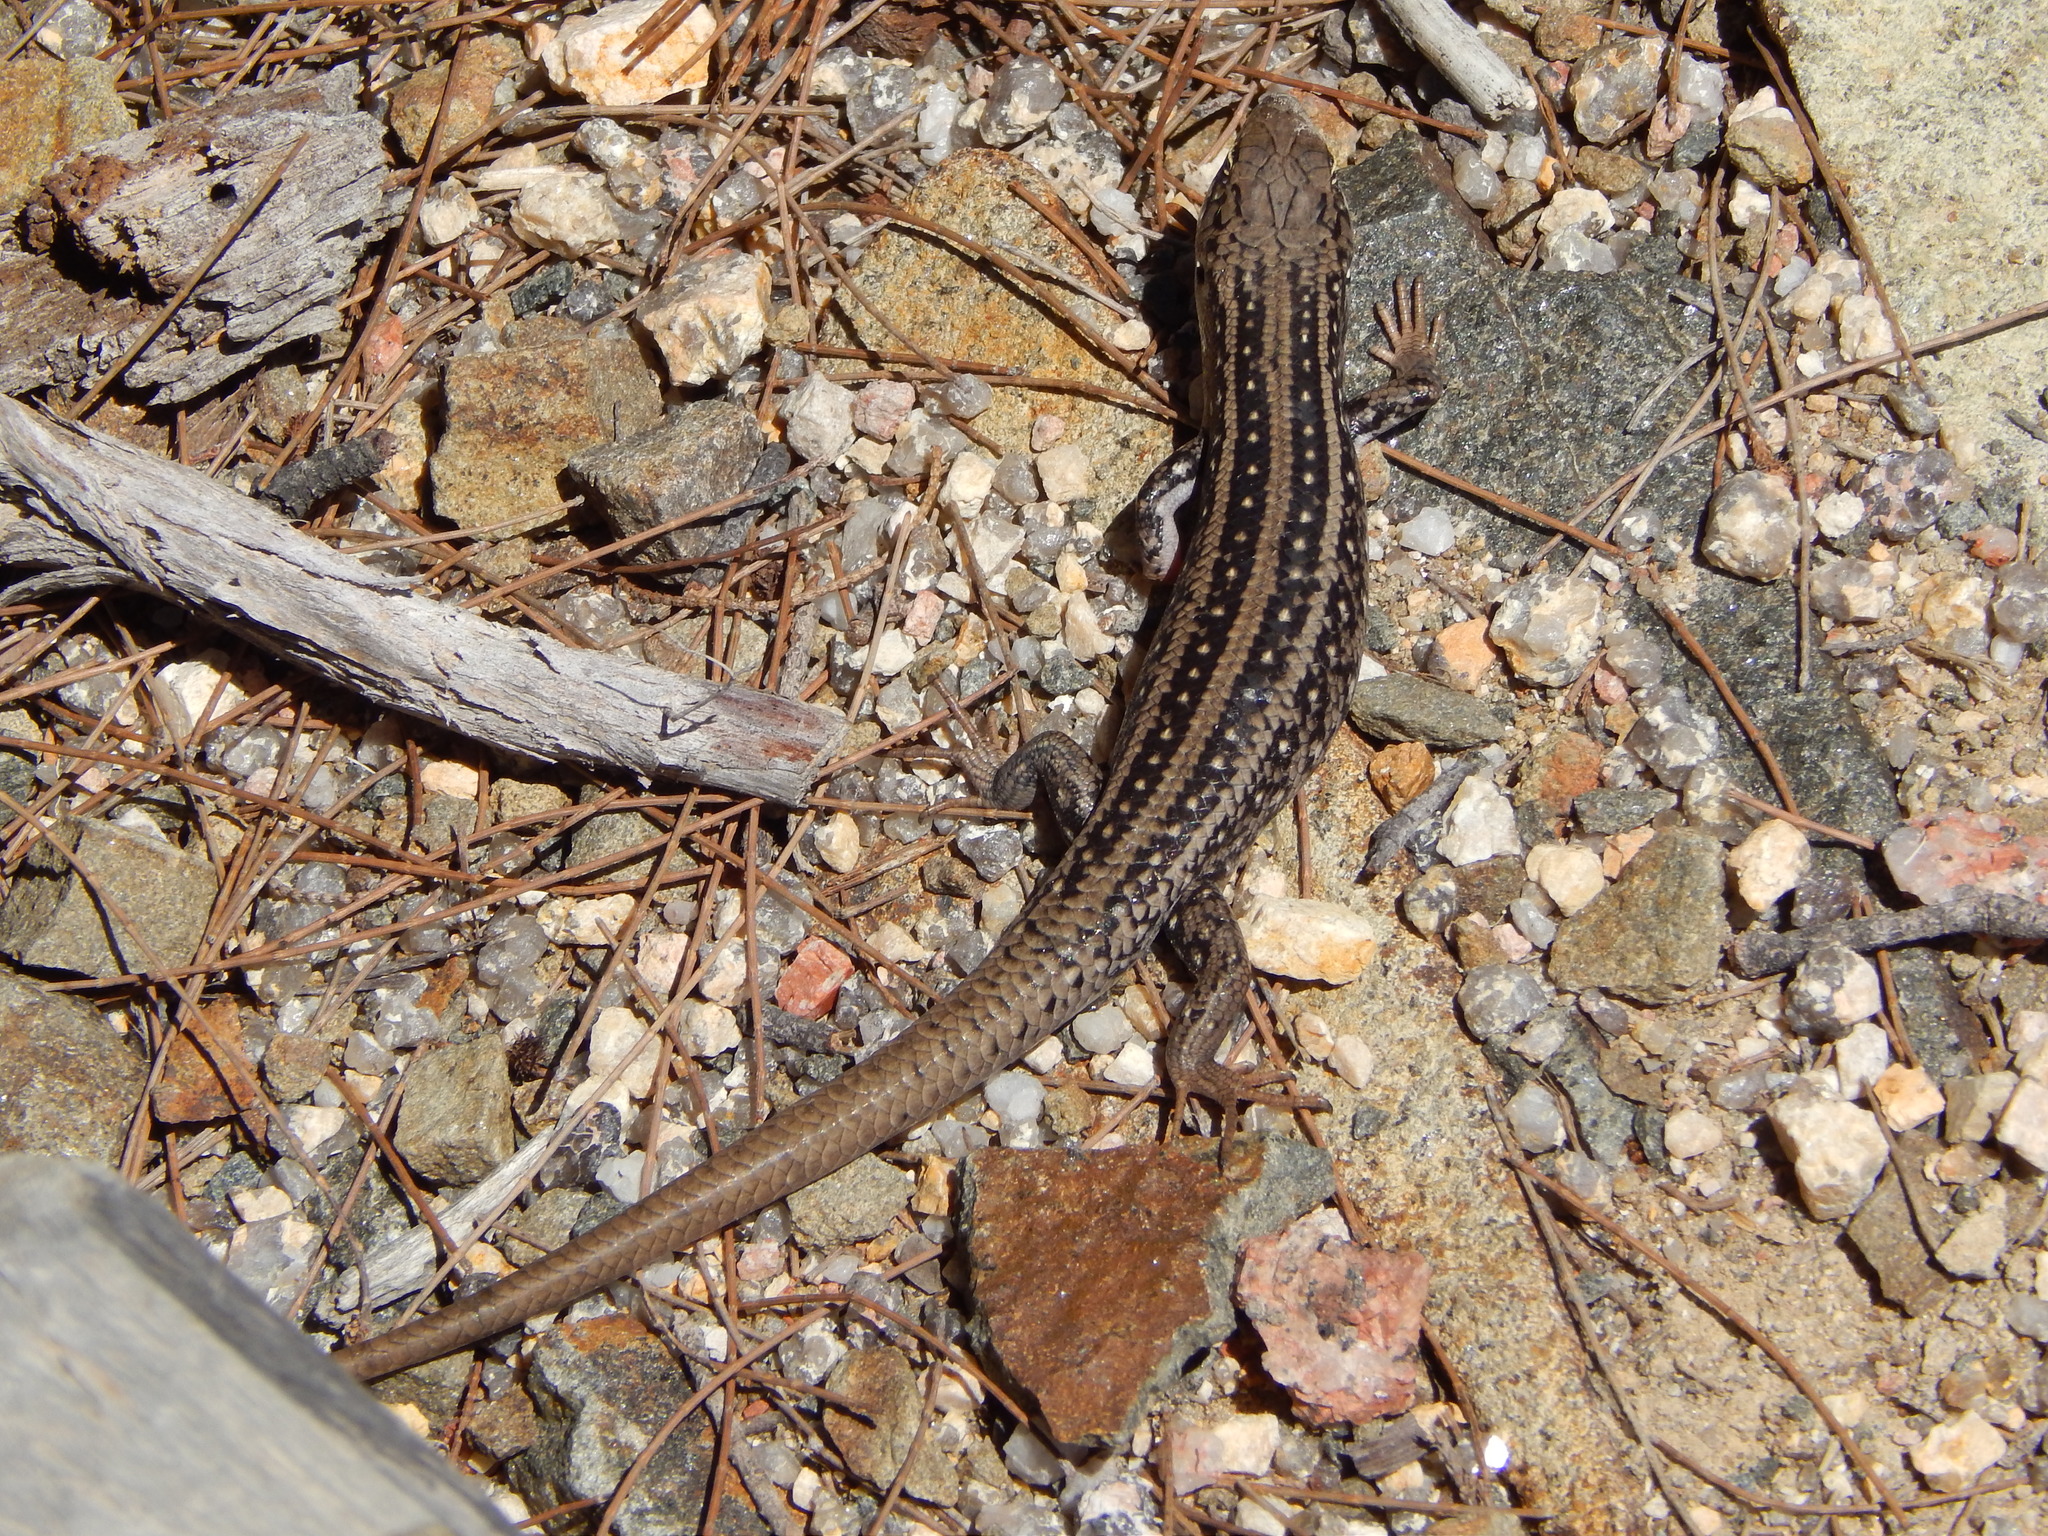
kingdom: Animalia
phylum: Chordata
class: Squamata
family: Scincidae
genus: Liopholis
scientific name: Liopholis whitii
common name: White's rock-skink
